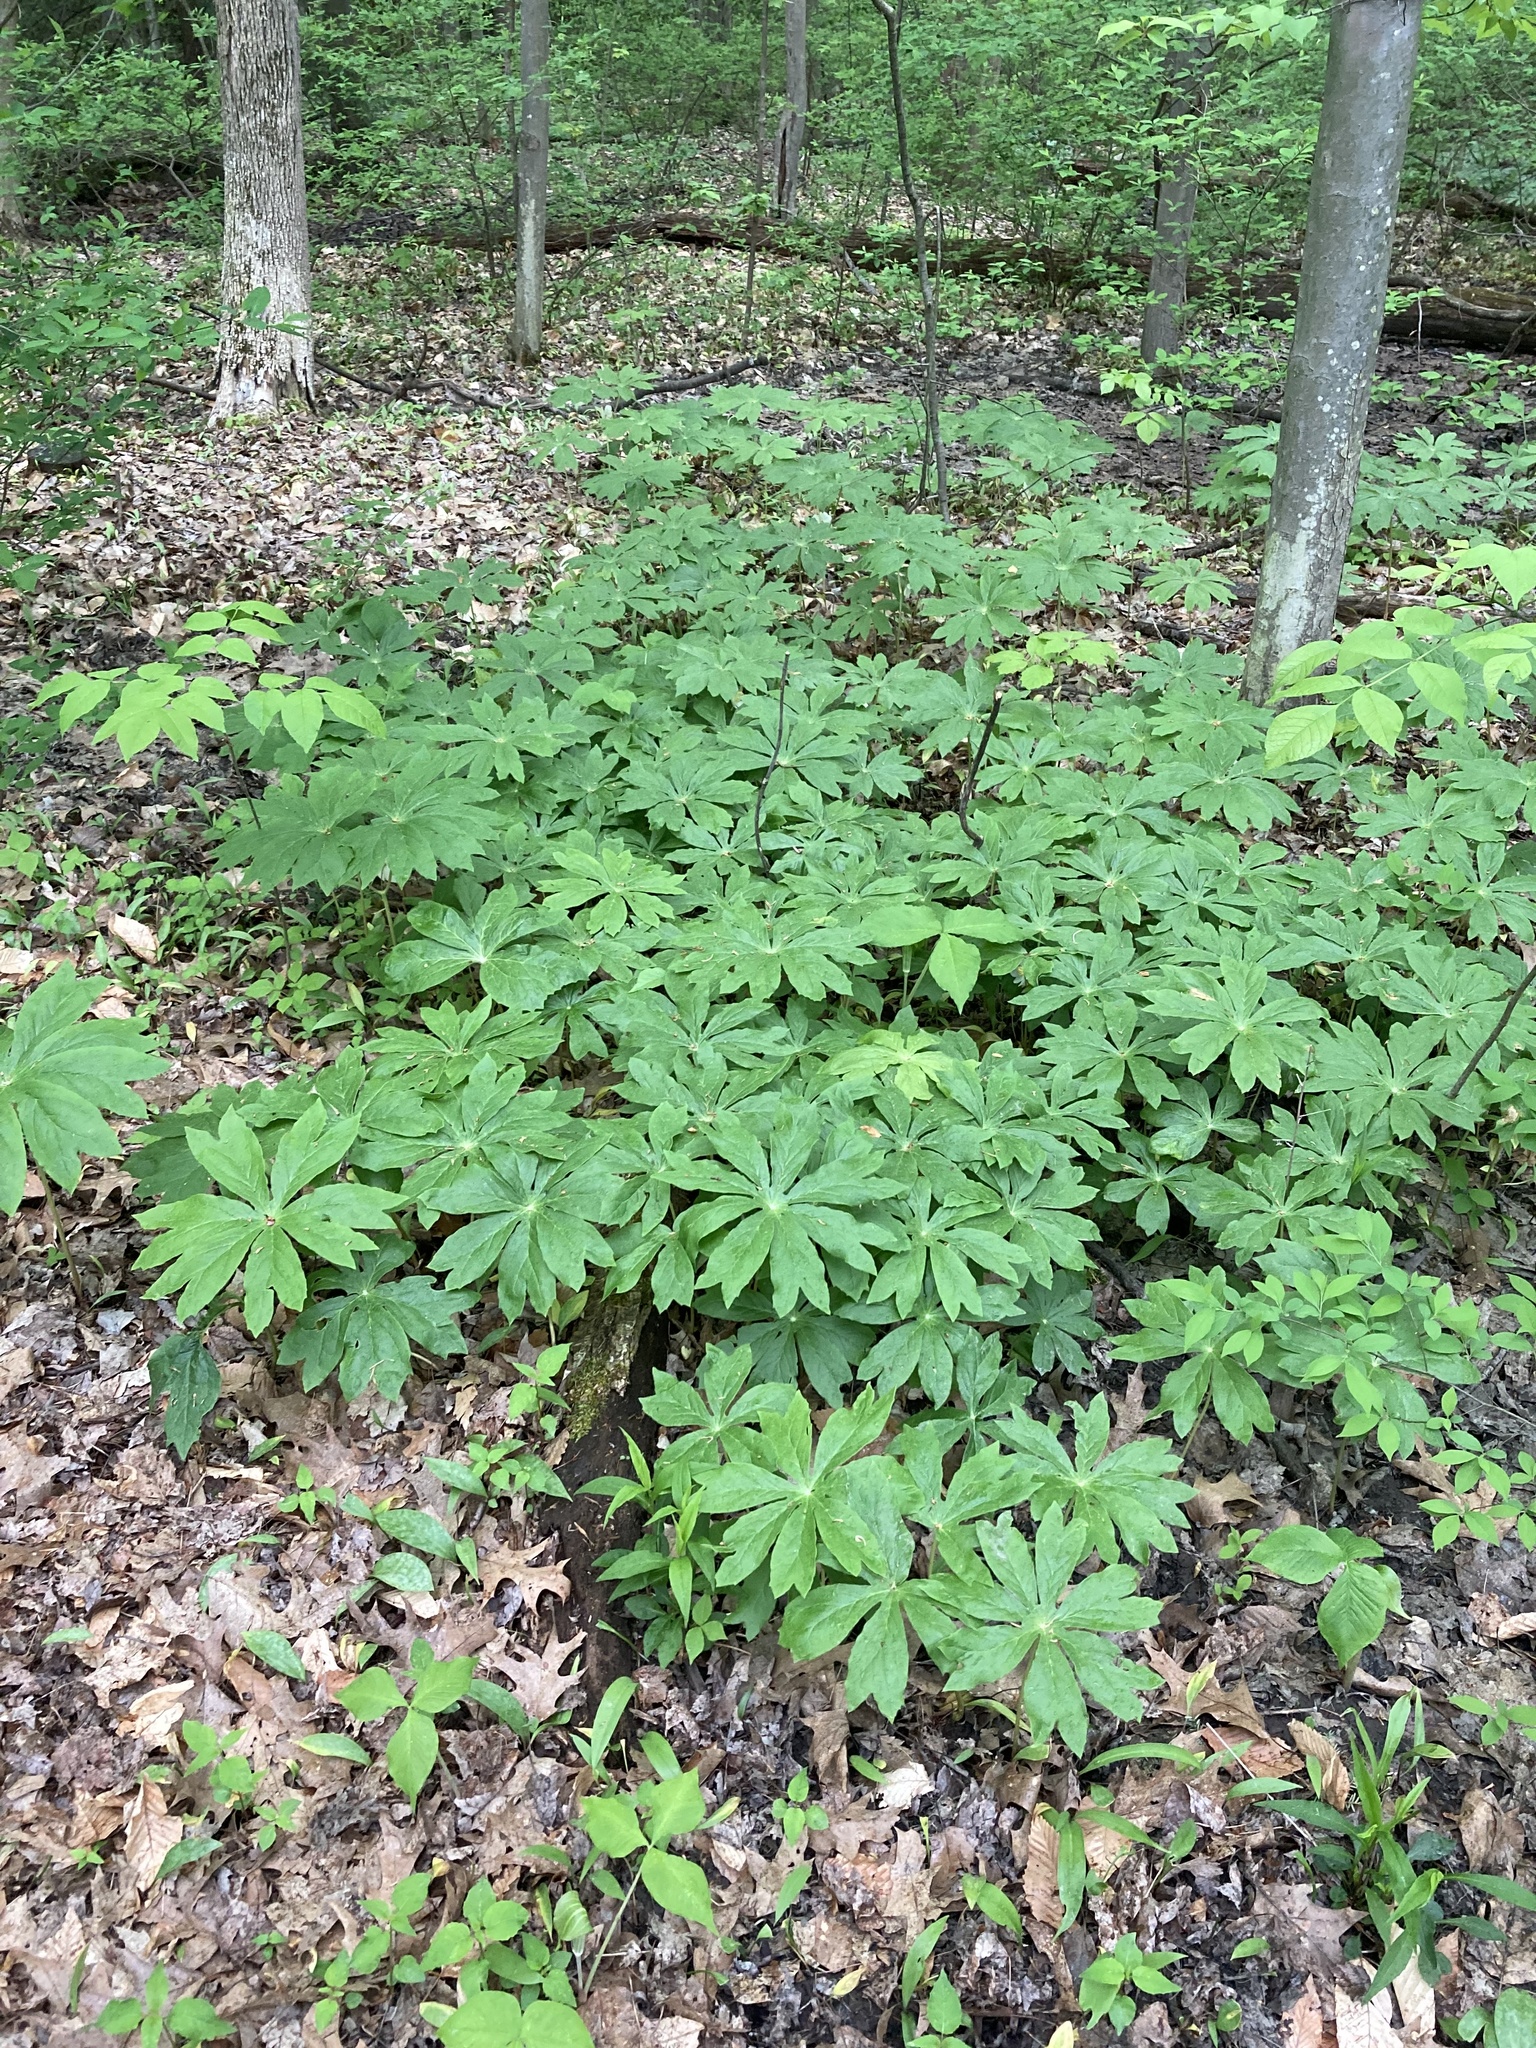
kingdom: Plantae
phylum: Tracheophyta
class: Magnoliopsida
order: Ranunculales
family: Berberidaceae
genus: Podophyllum
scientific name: Podophyllum peltatum
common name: Wild mandrake
